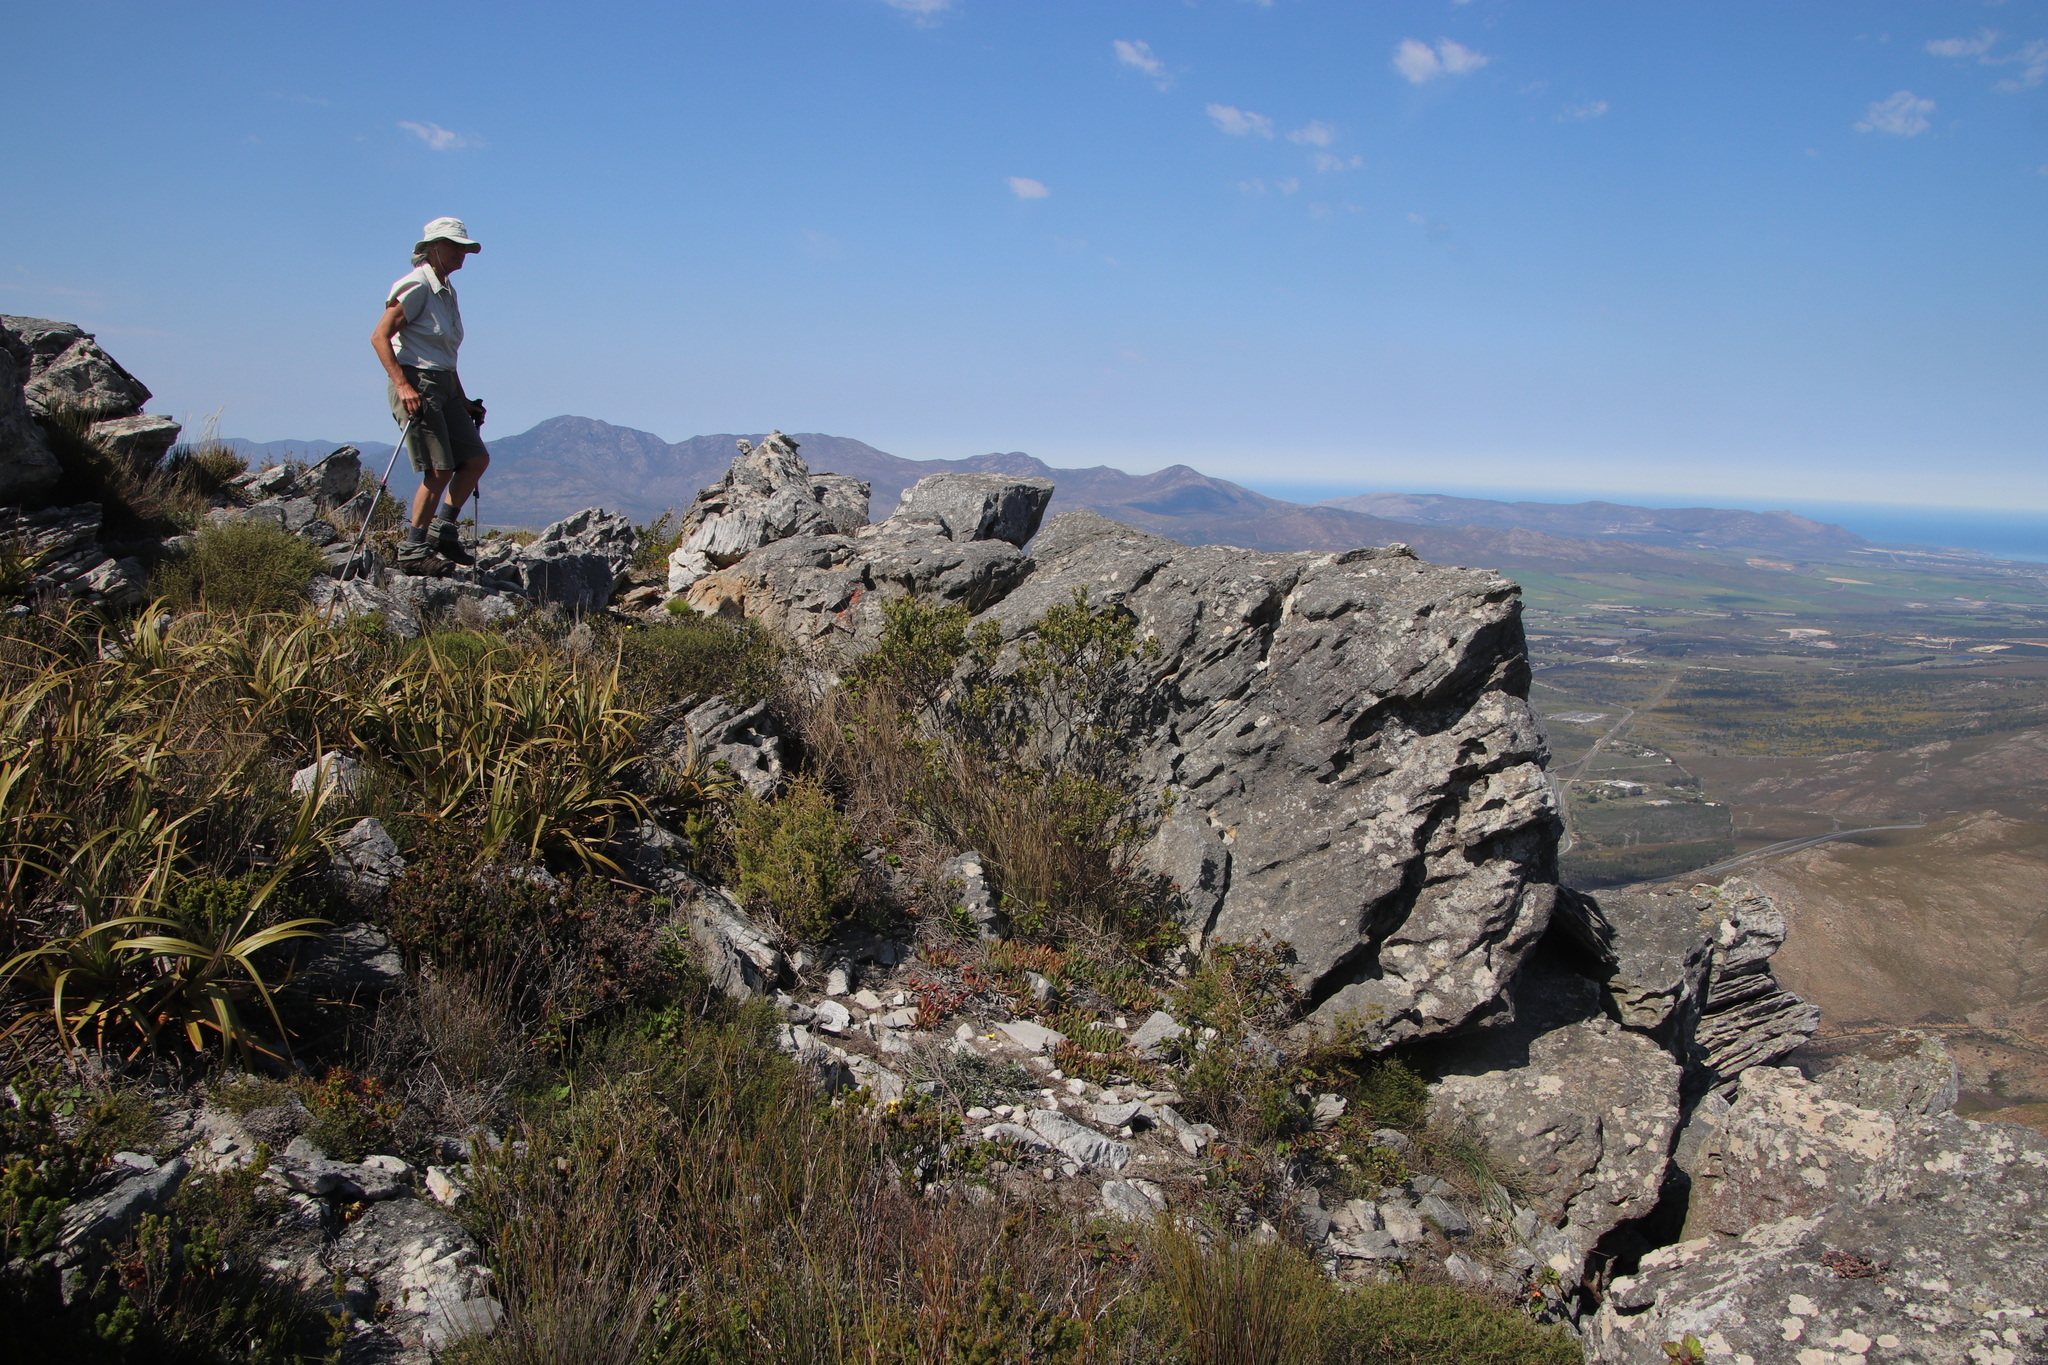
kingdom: Plantae
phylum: Tracheophyta
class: Liliopsida
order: Poales
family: Cyperaceae
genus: Tetraria
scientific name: Tetraria thermalis
